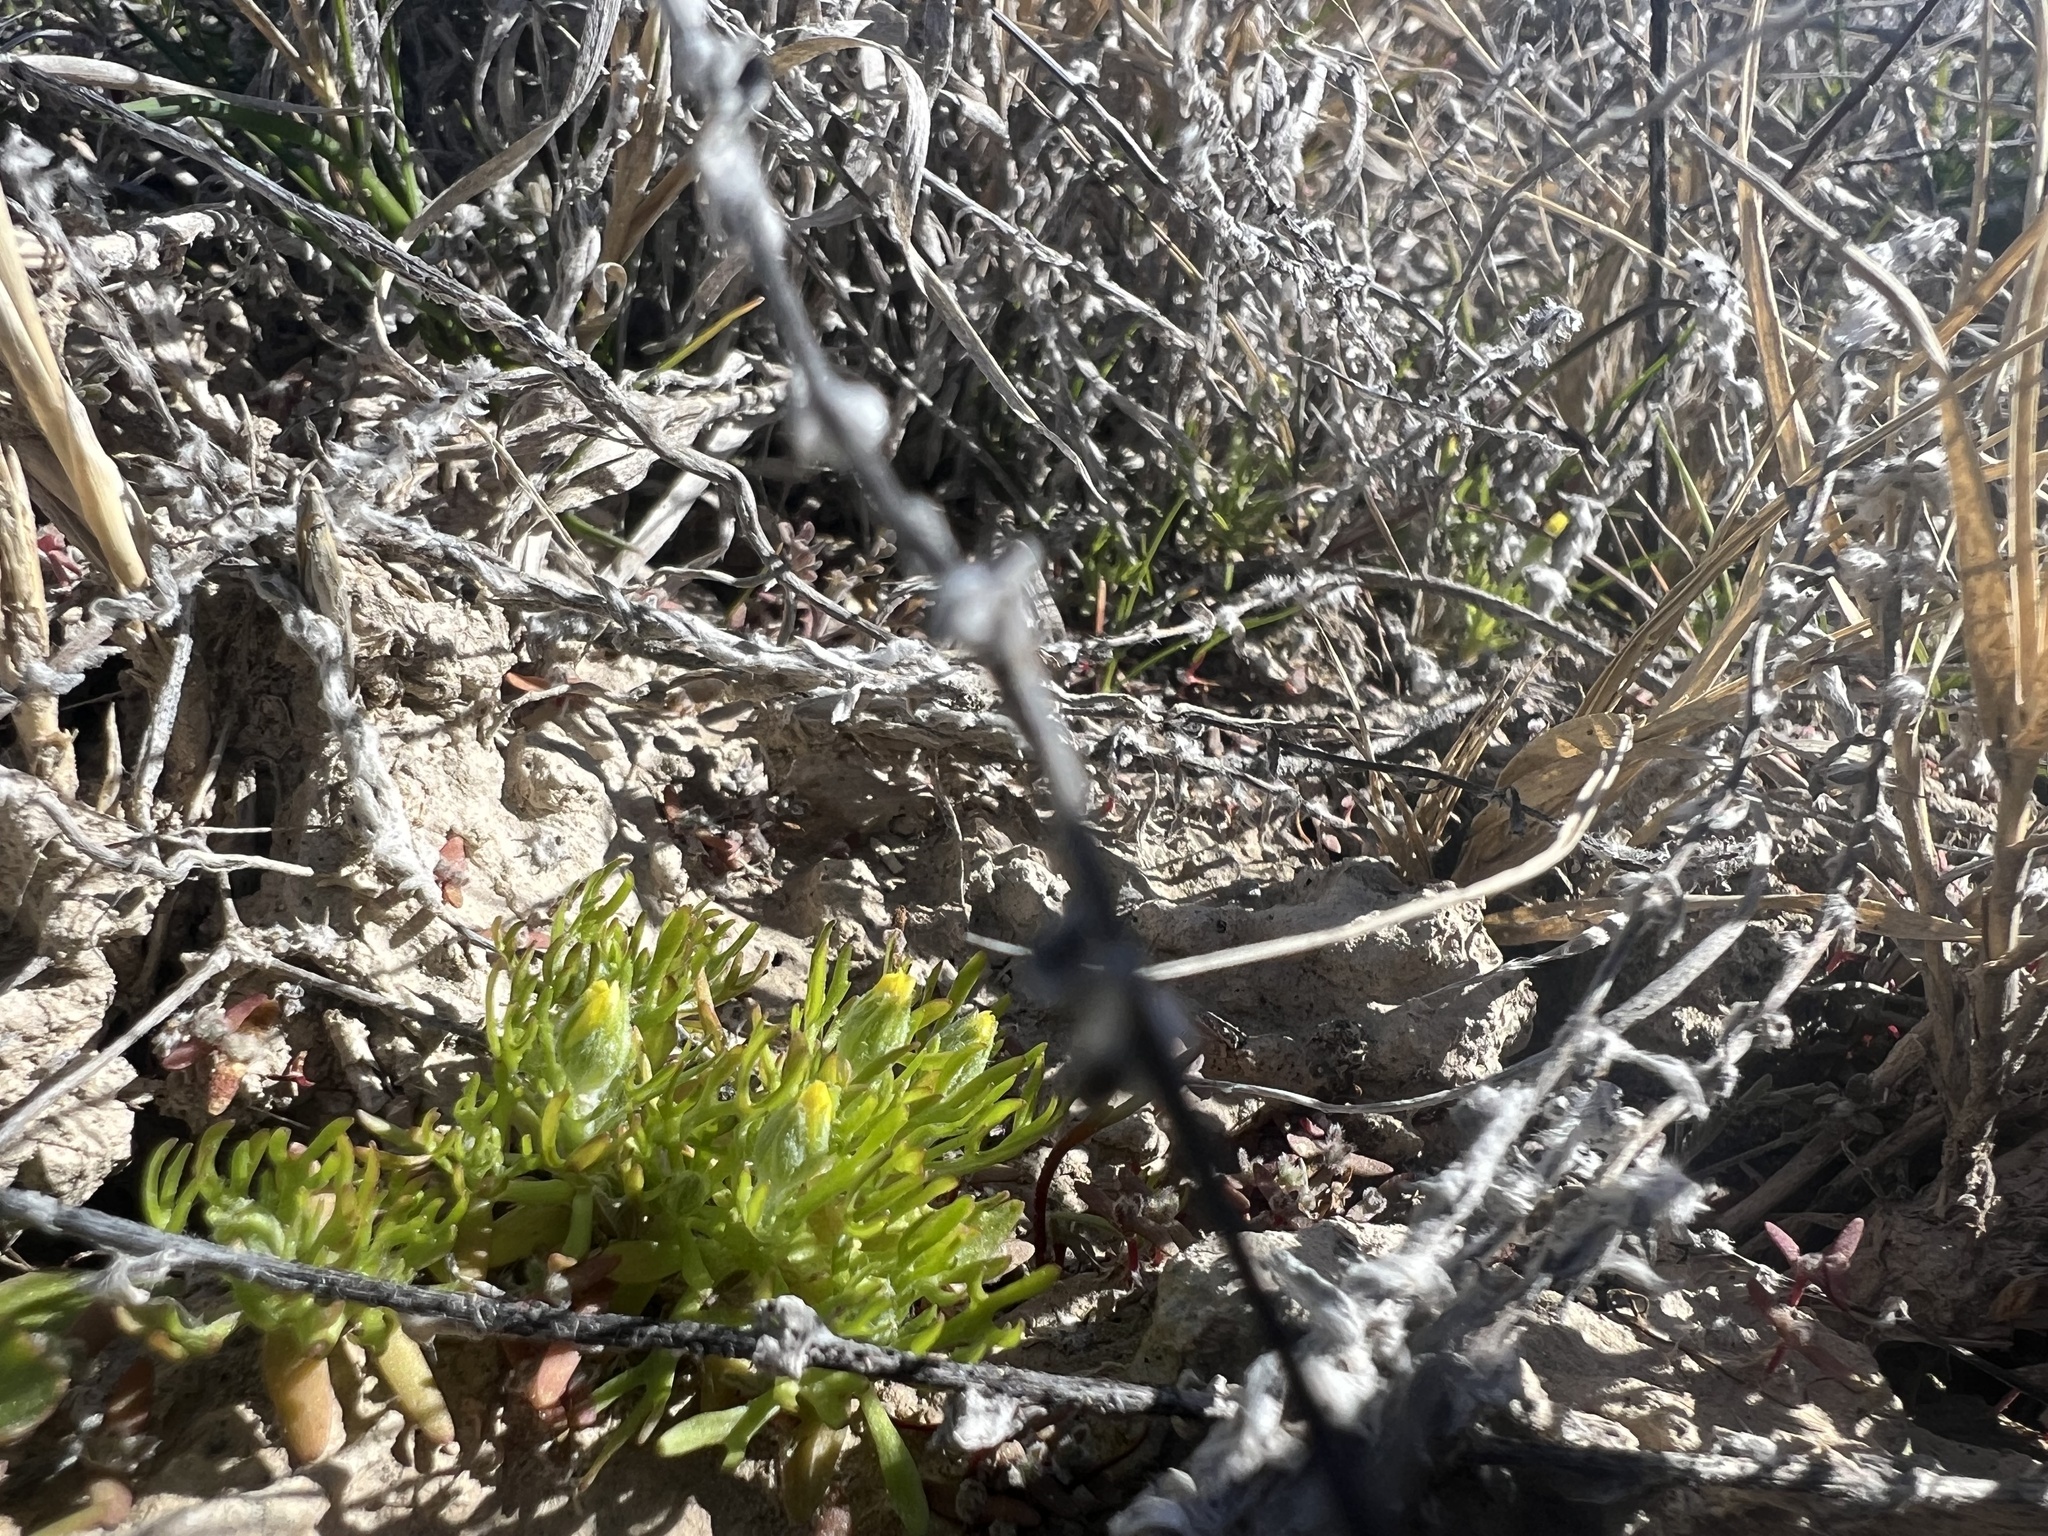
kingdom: Plantae
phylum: Tracheophyta
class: Magnoliopsida
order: Ranunculales
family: Ranunculaceae
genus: Ceratocephala
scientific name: Ceratocephala orthoceras
